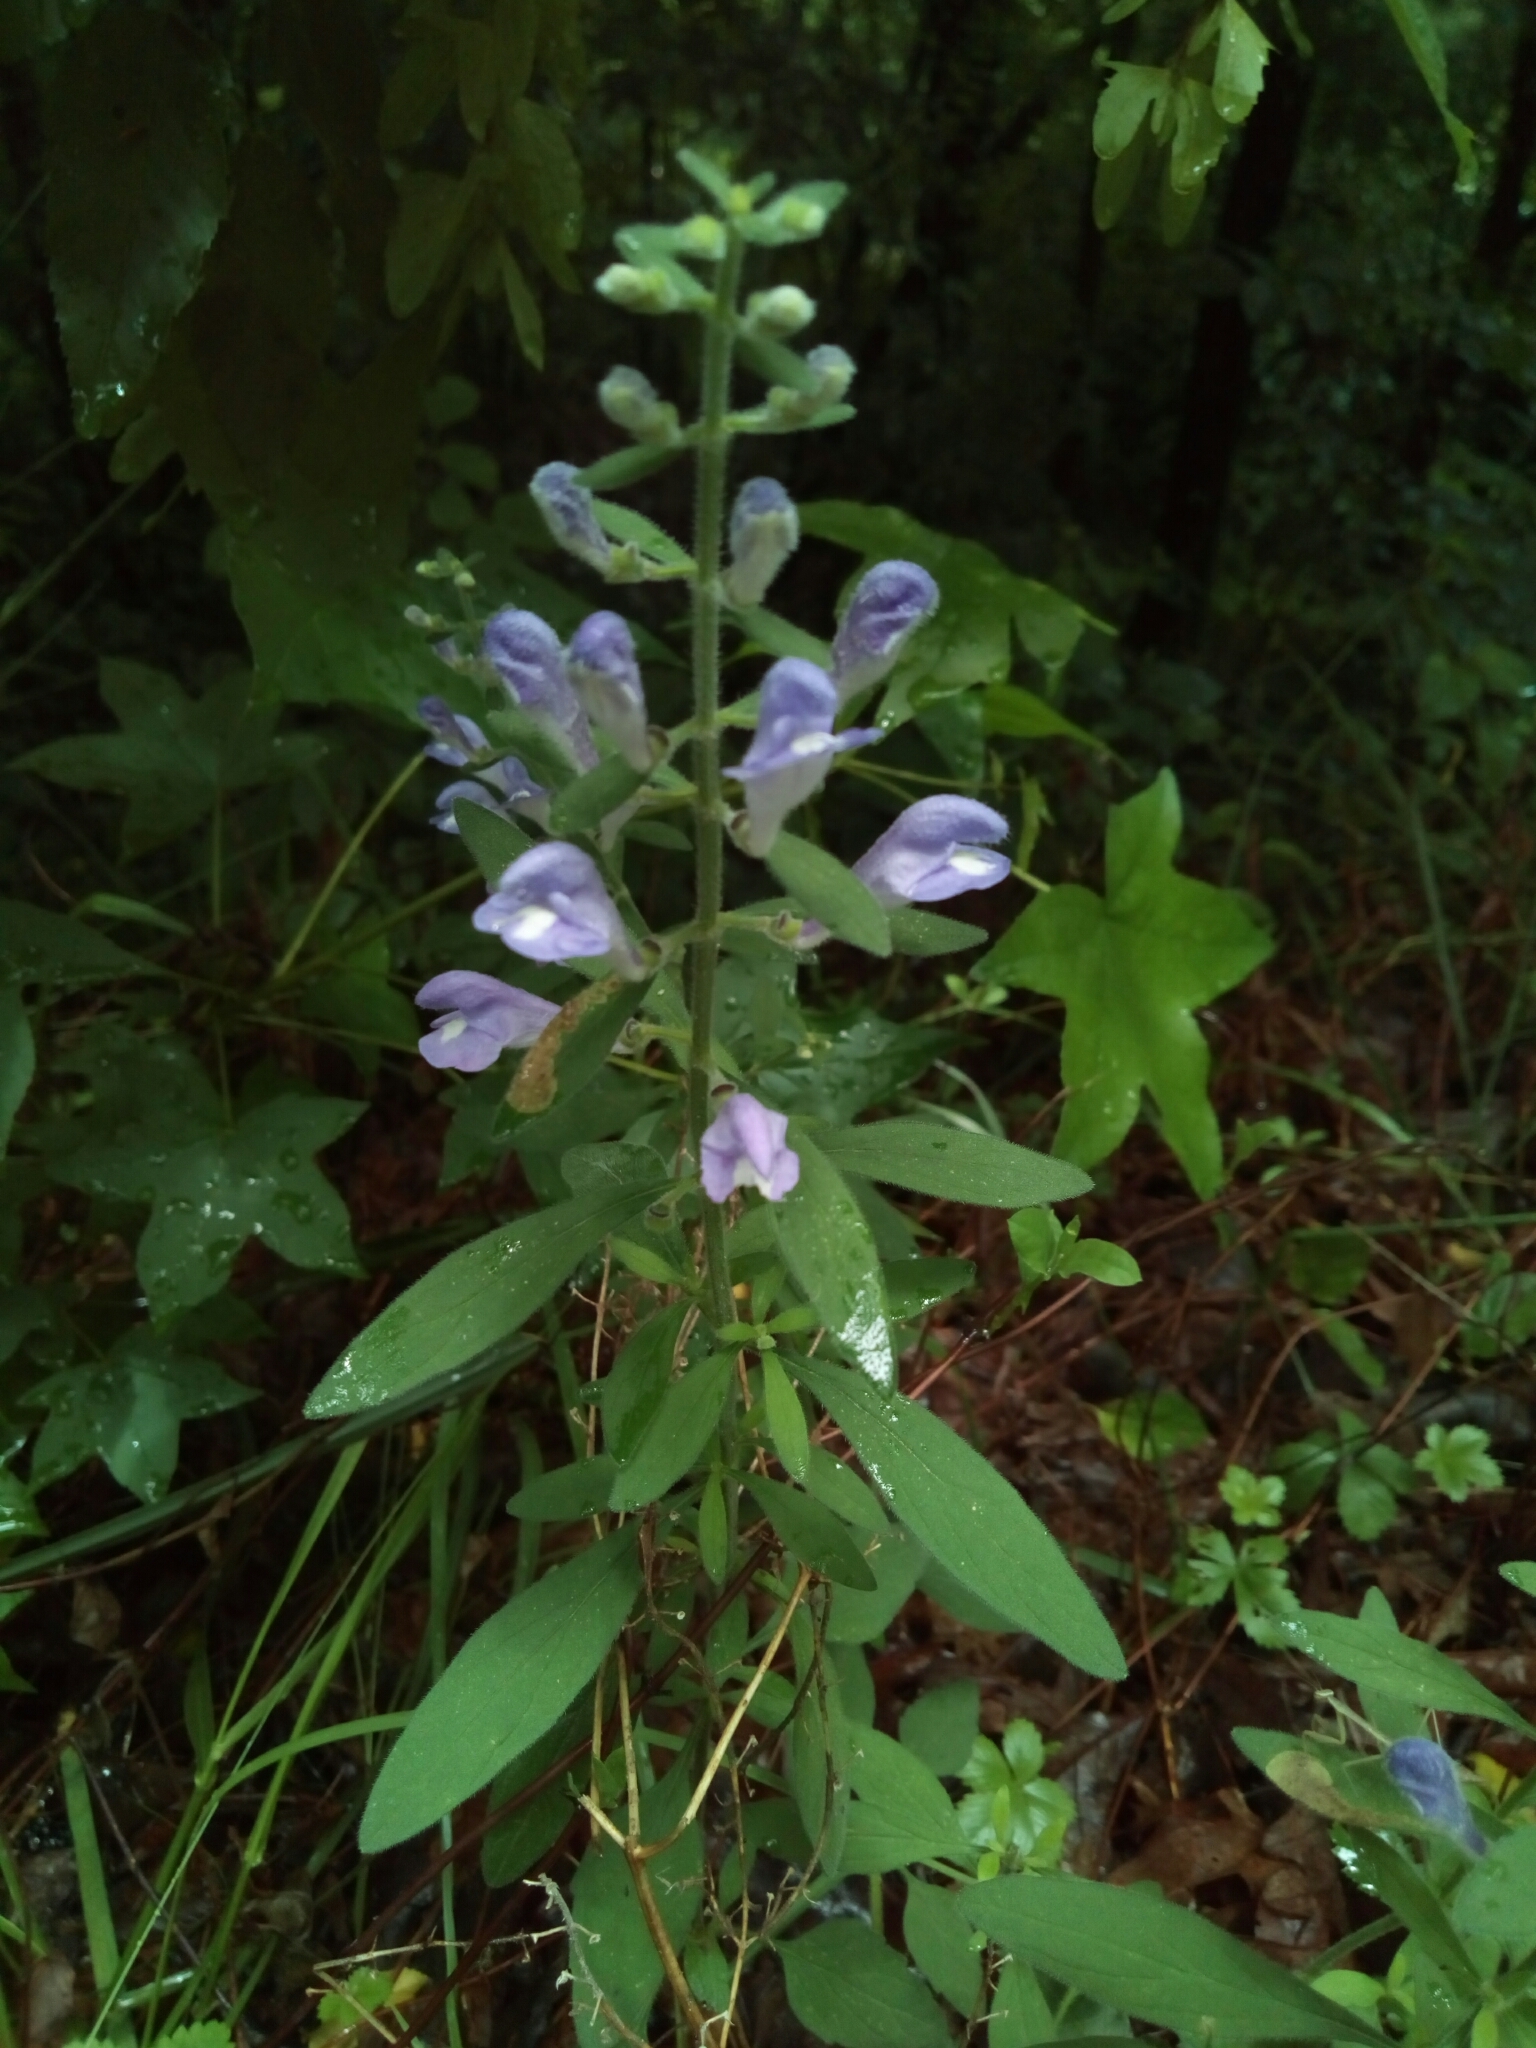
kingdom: Plantae
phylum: Tracheophyta
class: Magnoliopsida
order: Lamiales
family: Lamiaceae
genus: Scutellaria
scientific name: Scutellaria integrifolia
